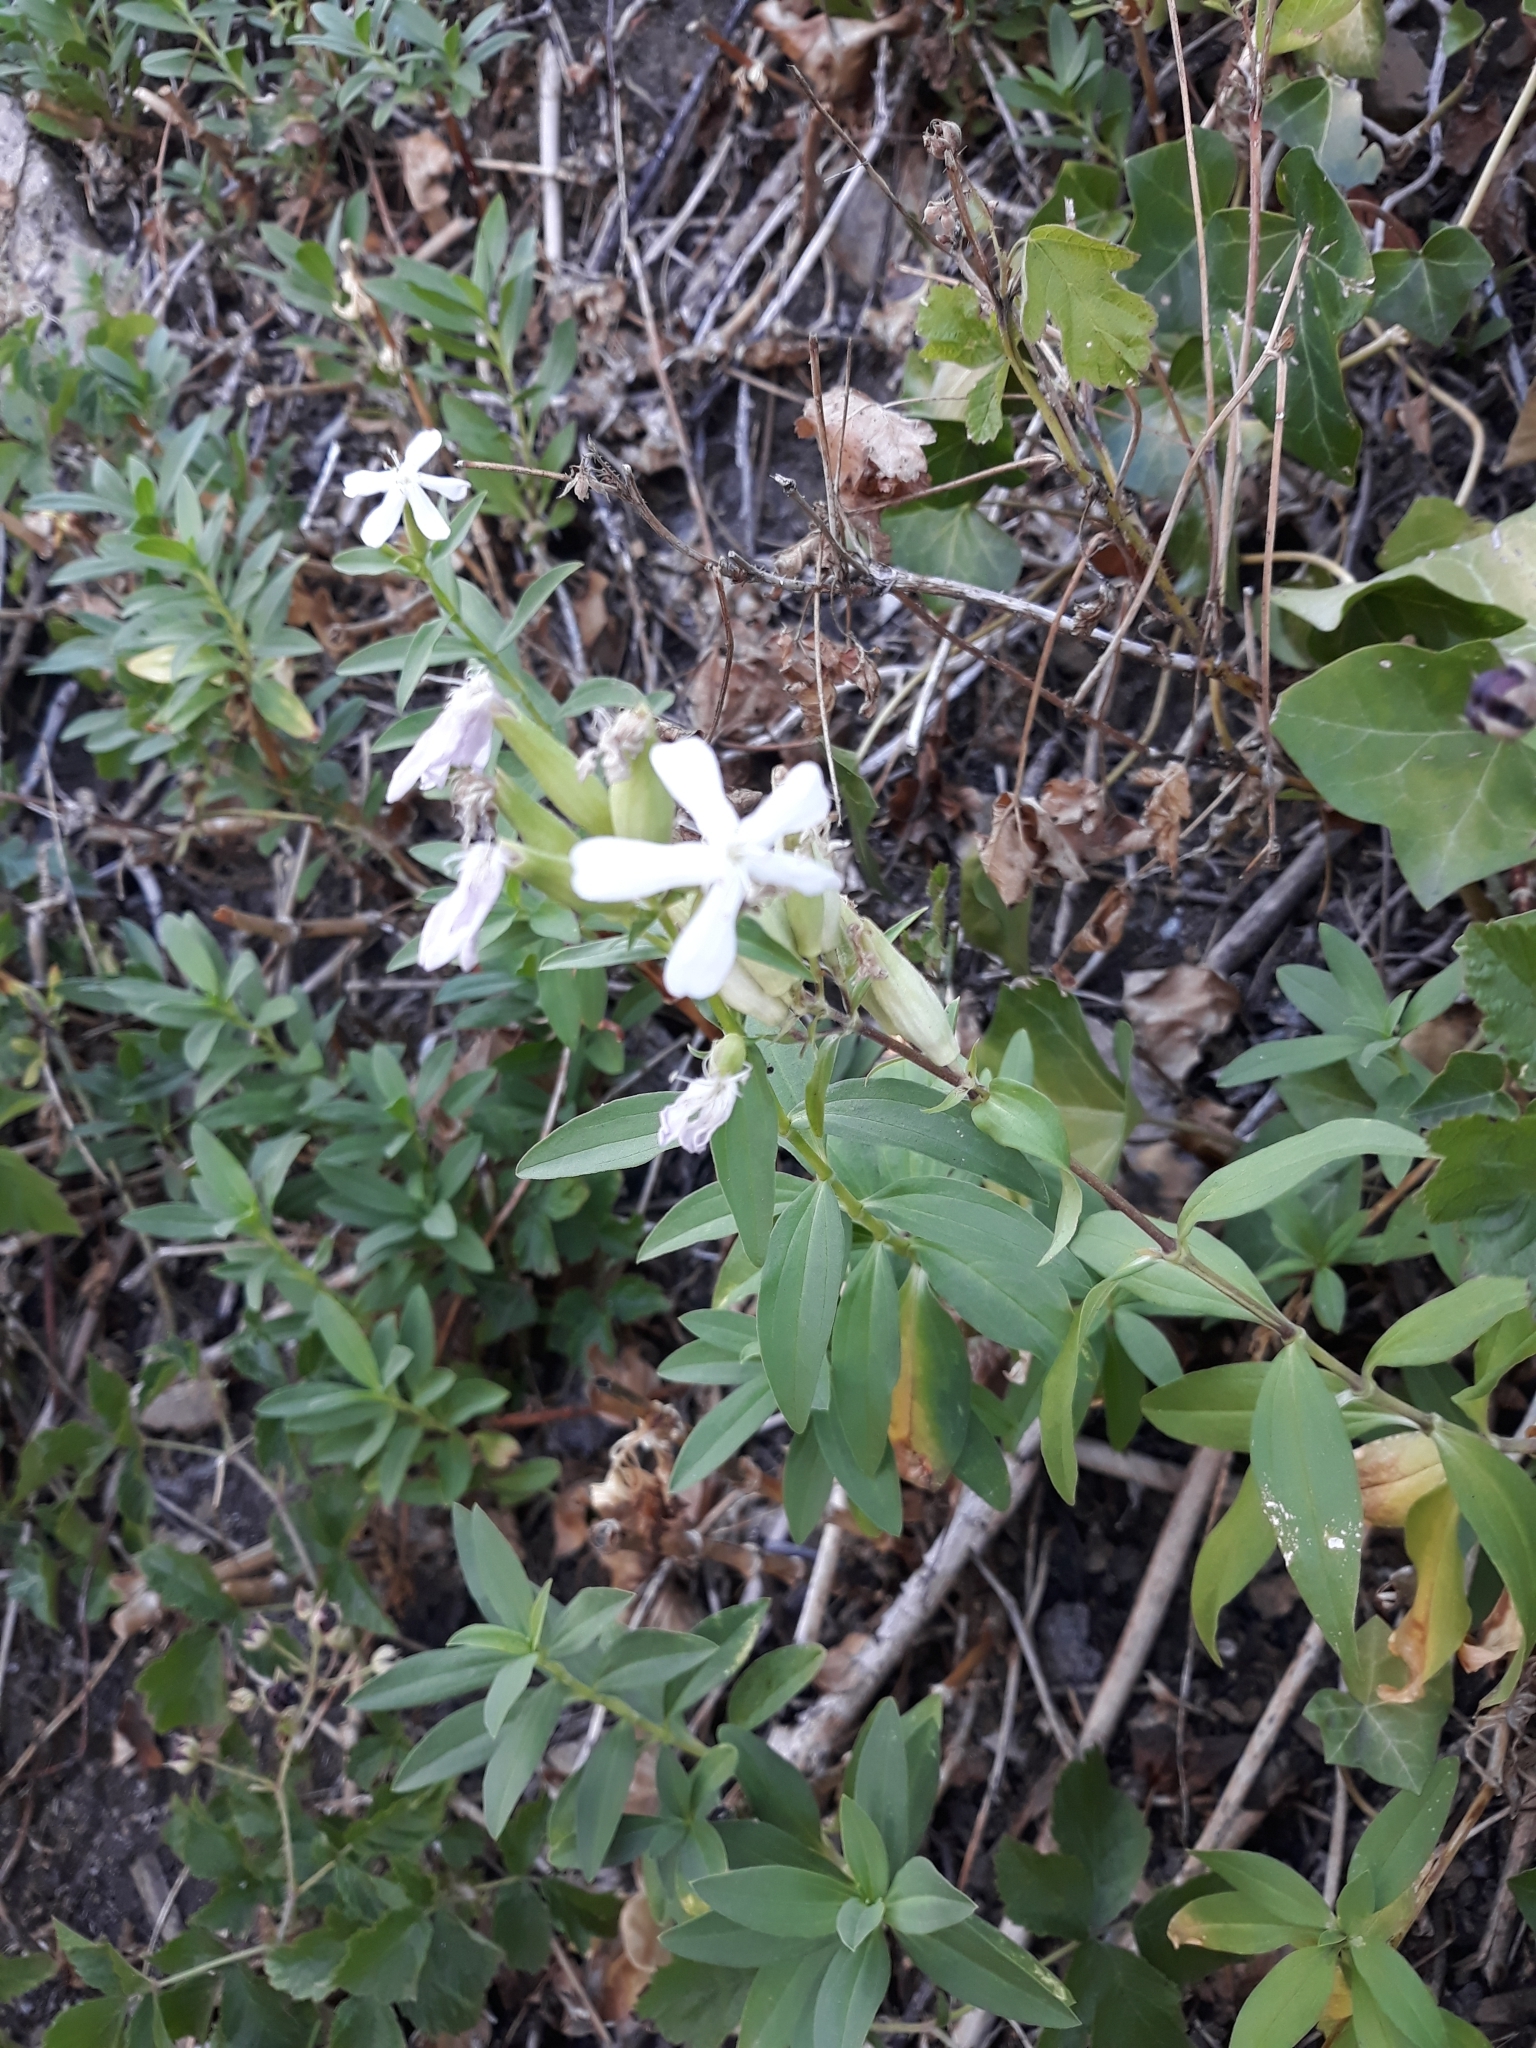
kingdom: Plantae
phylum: Tracheophyta
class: Magnoliopsida
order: Caryophyllales
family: Caryophyllaceae
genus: Saponaria
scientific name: Saponaria officinalis
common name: Soapwort
